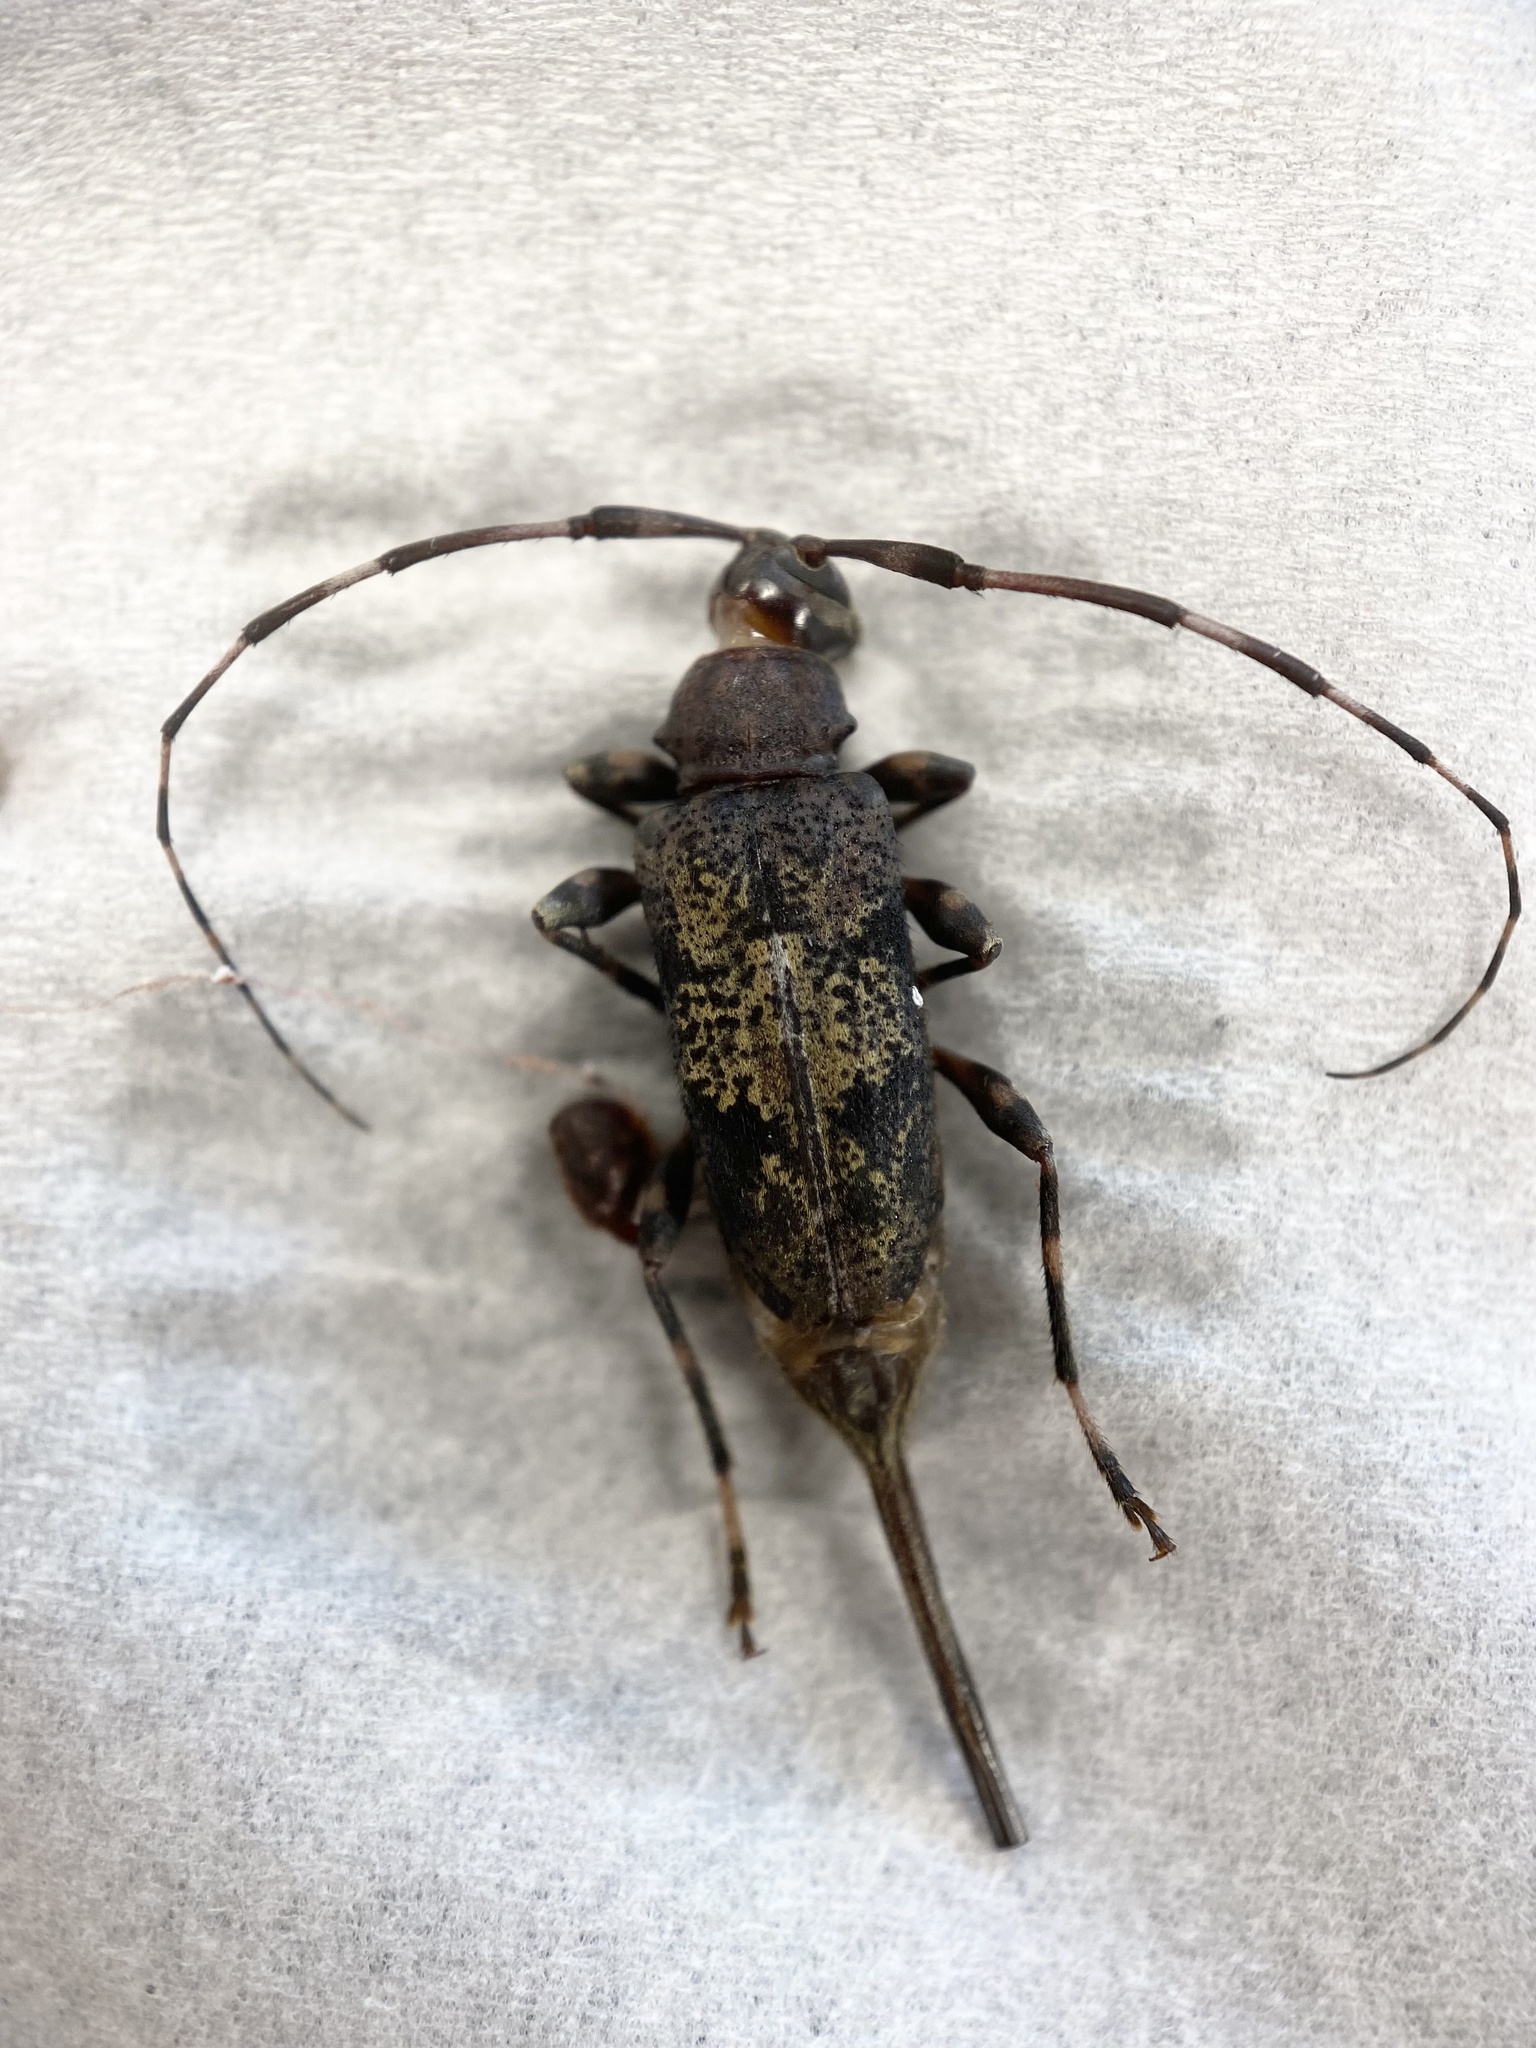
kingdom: Animalia
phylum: Arthropoda
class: Insecta
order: Coleoptera
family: Cerambycidae
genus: Graphisurus
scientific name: Graphisurus fasciatus
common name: Banded graphisurus
